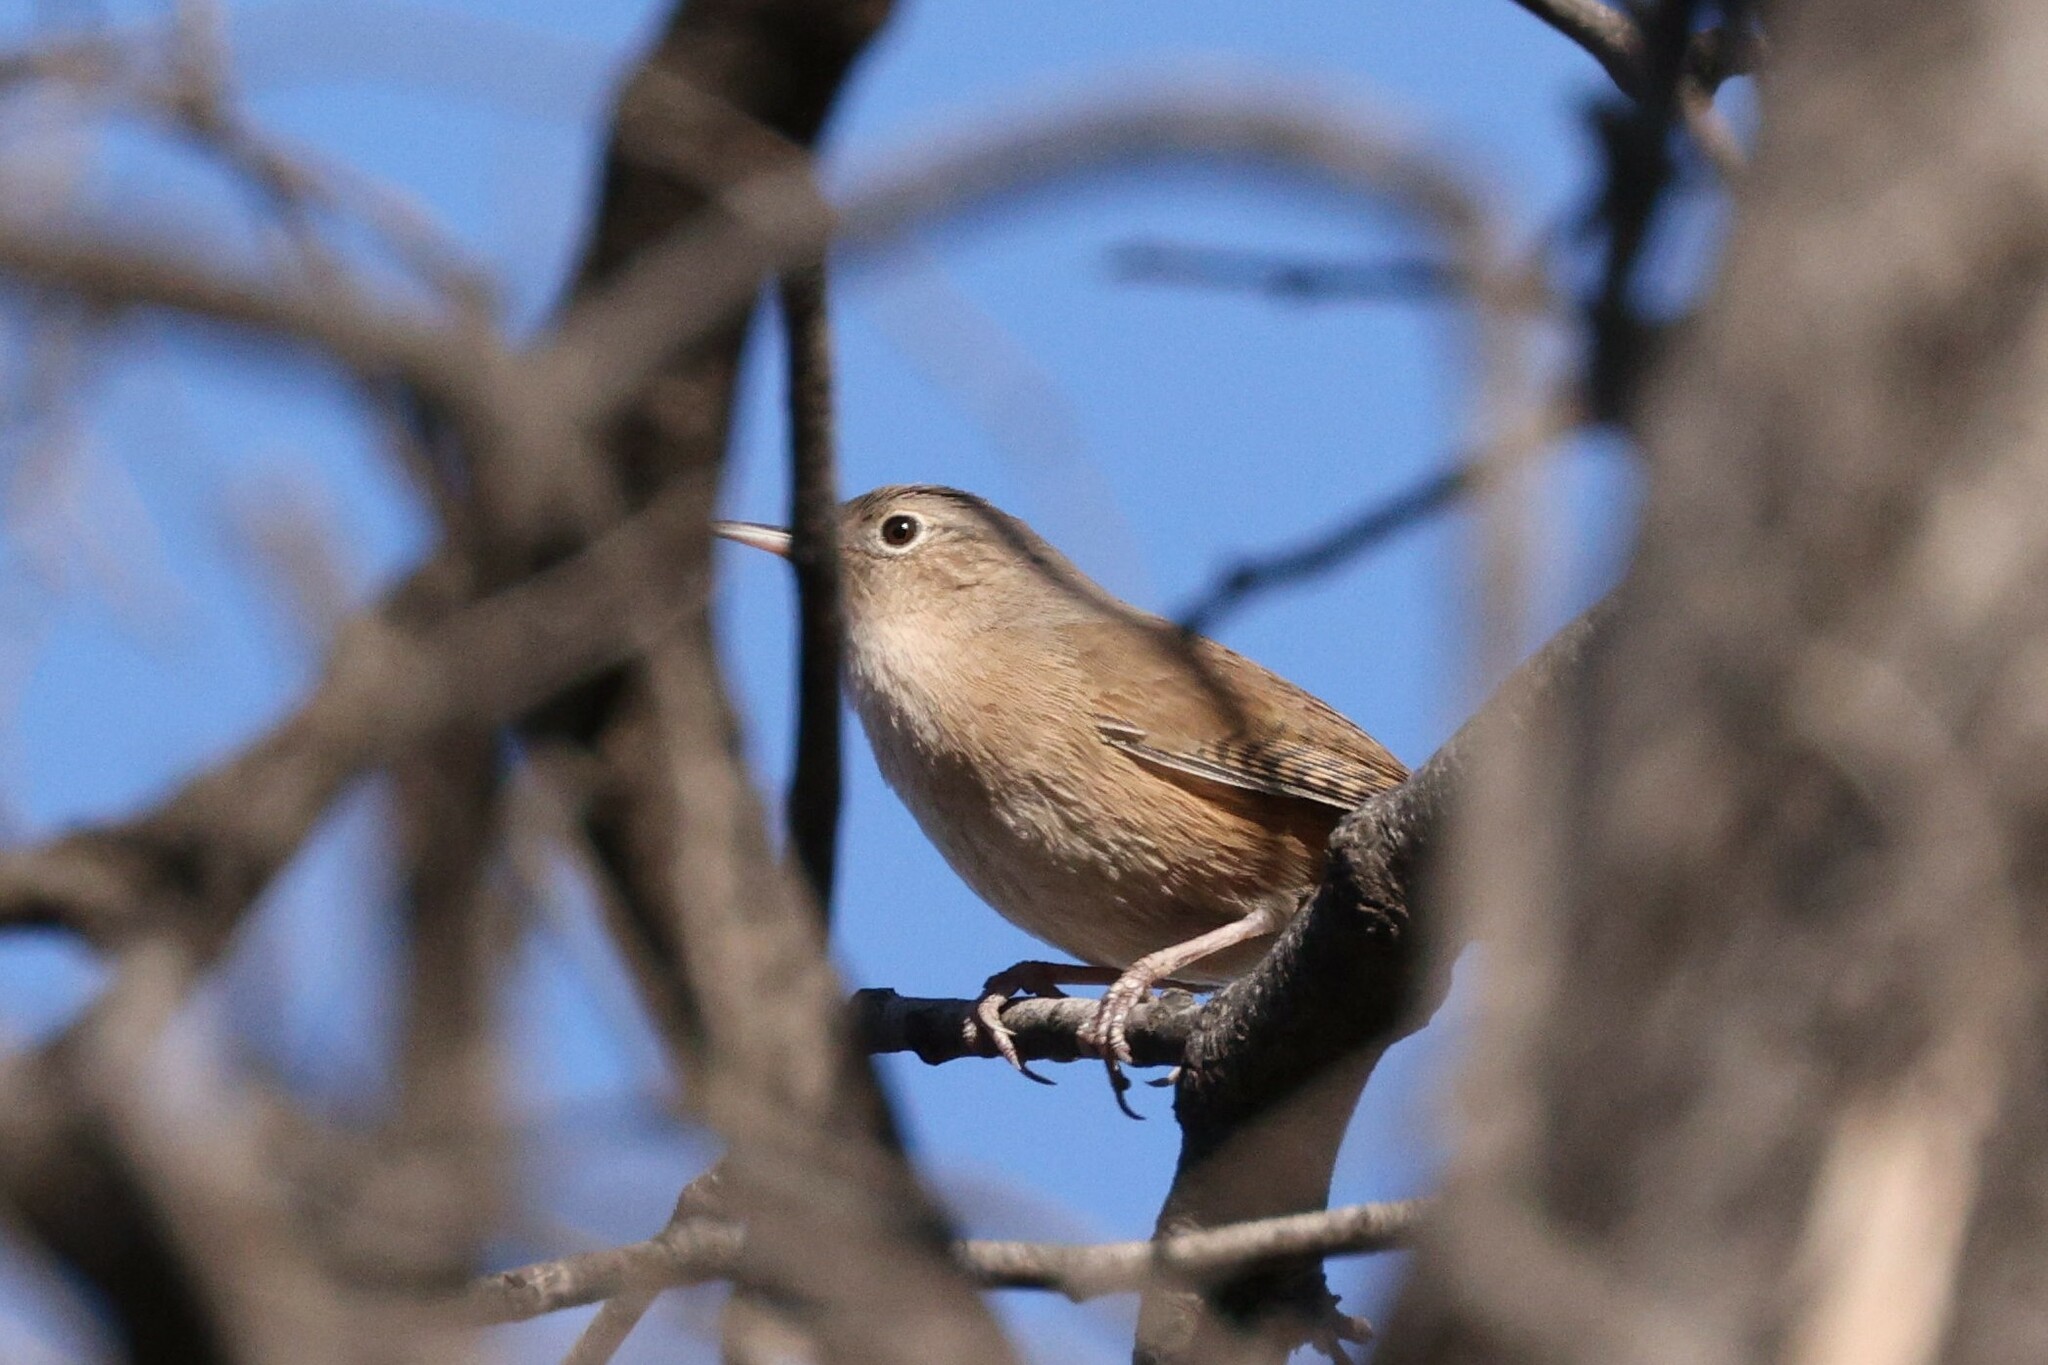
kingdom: Animalia
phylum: Chordata
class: Aves
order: Passeriformes
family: Troglodytidae
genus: Troglodytes
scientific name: Troglodytes aedon
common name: House wren
